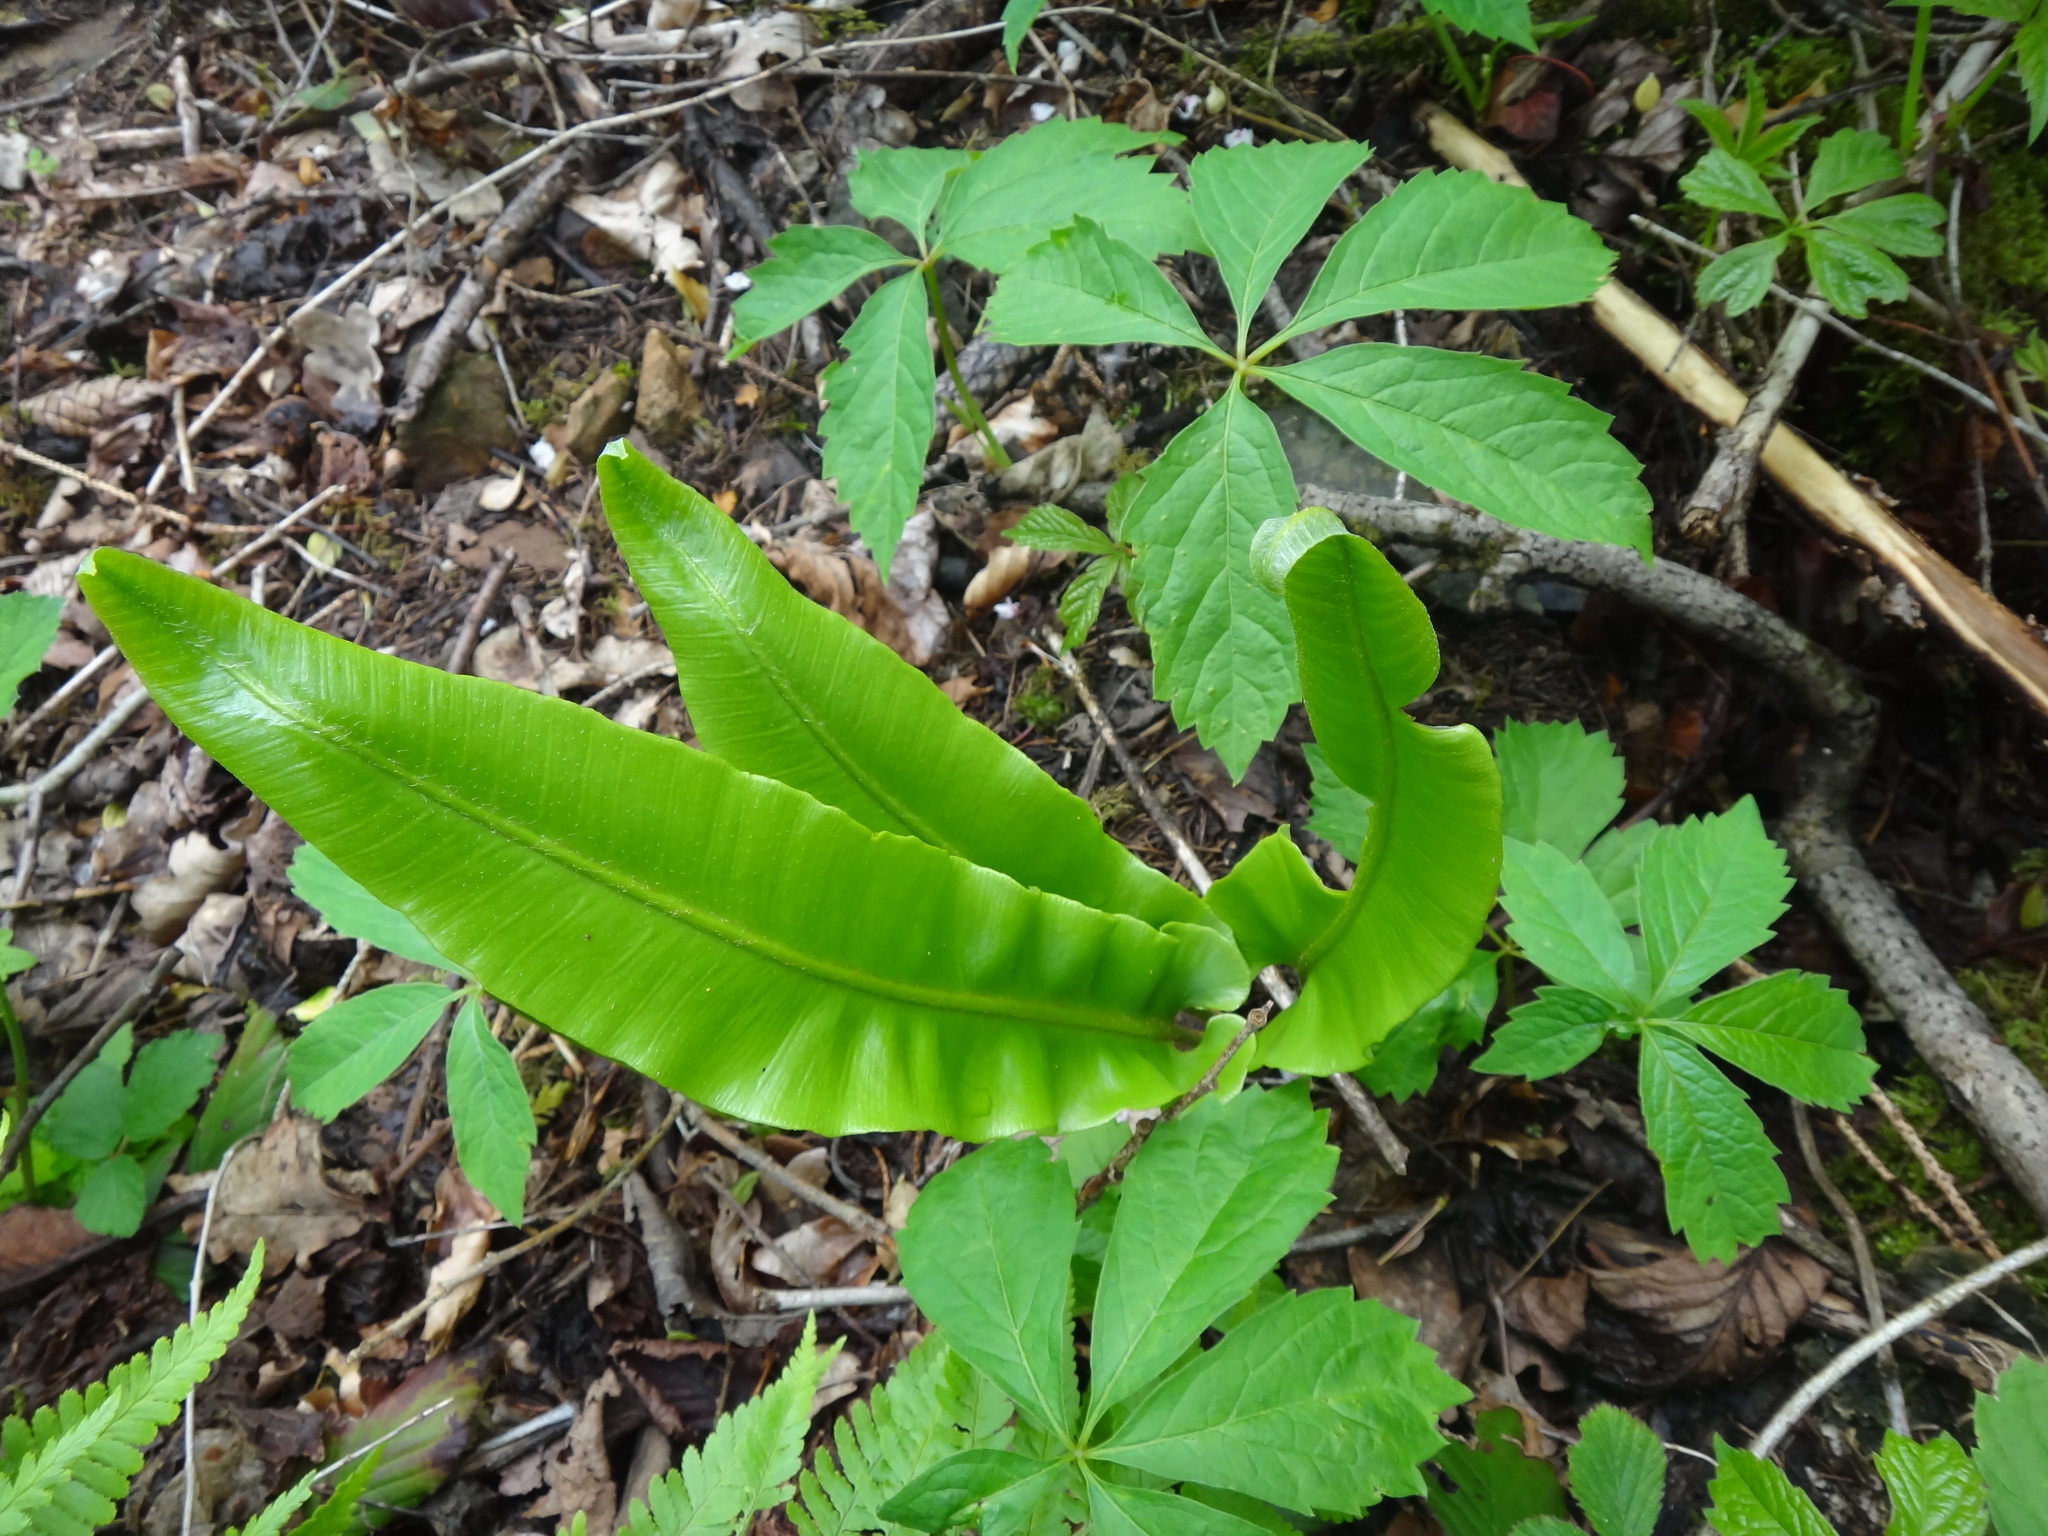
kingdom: Plantae
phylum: Tracheophyta
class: Polypodiopsida
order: Polypodiales
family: Aspleniaceae
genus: Asplenium
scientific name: Asplenium scolopendrium
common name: Hart's-tongue fern
